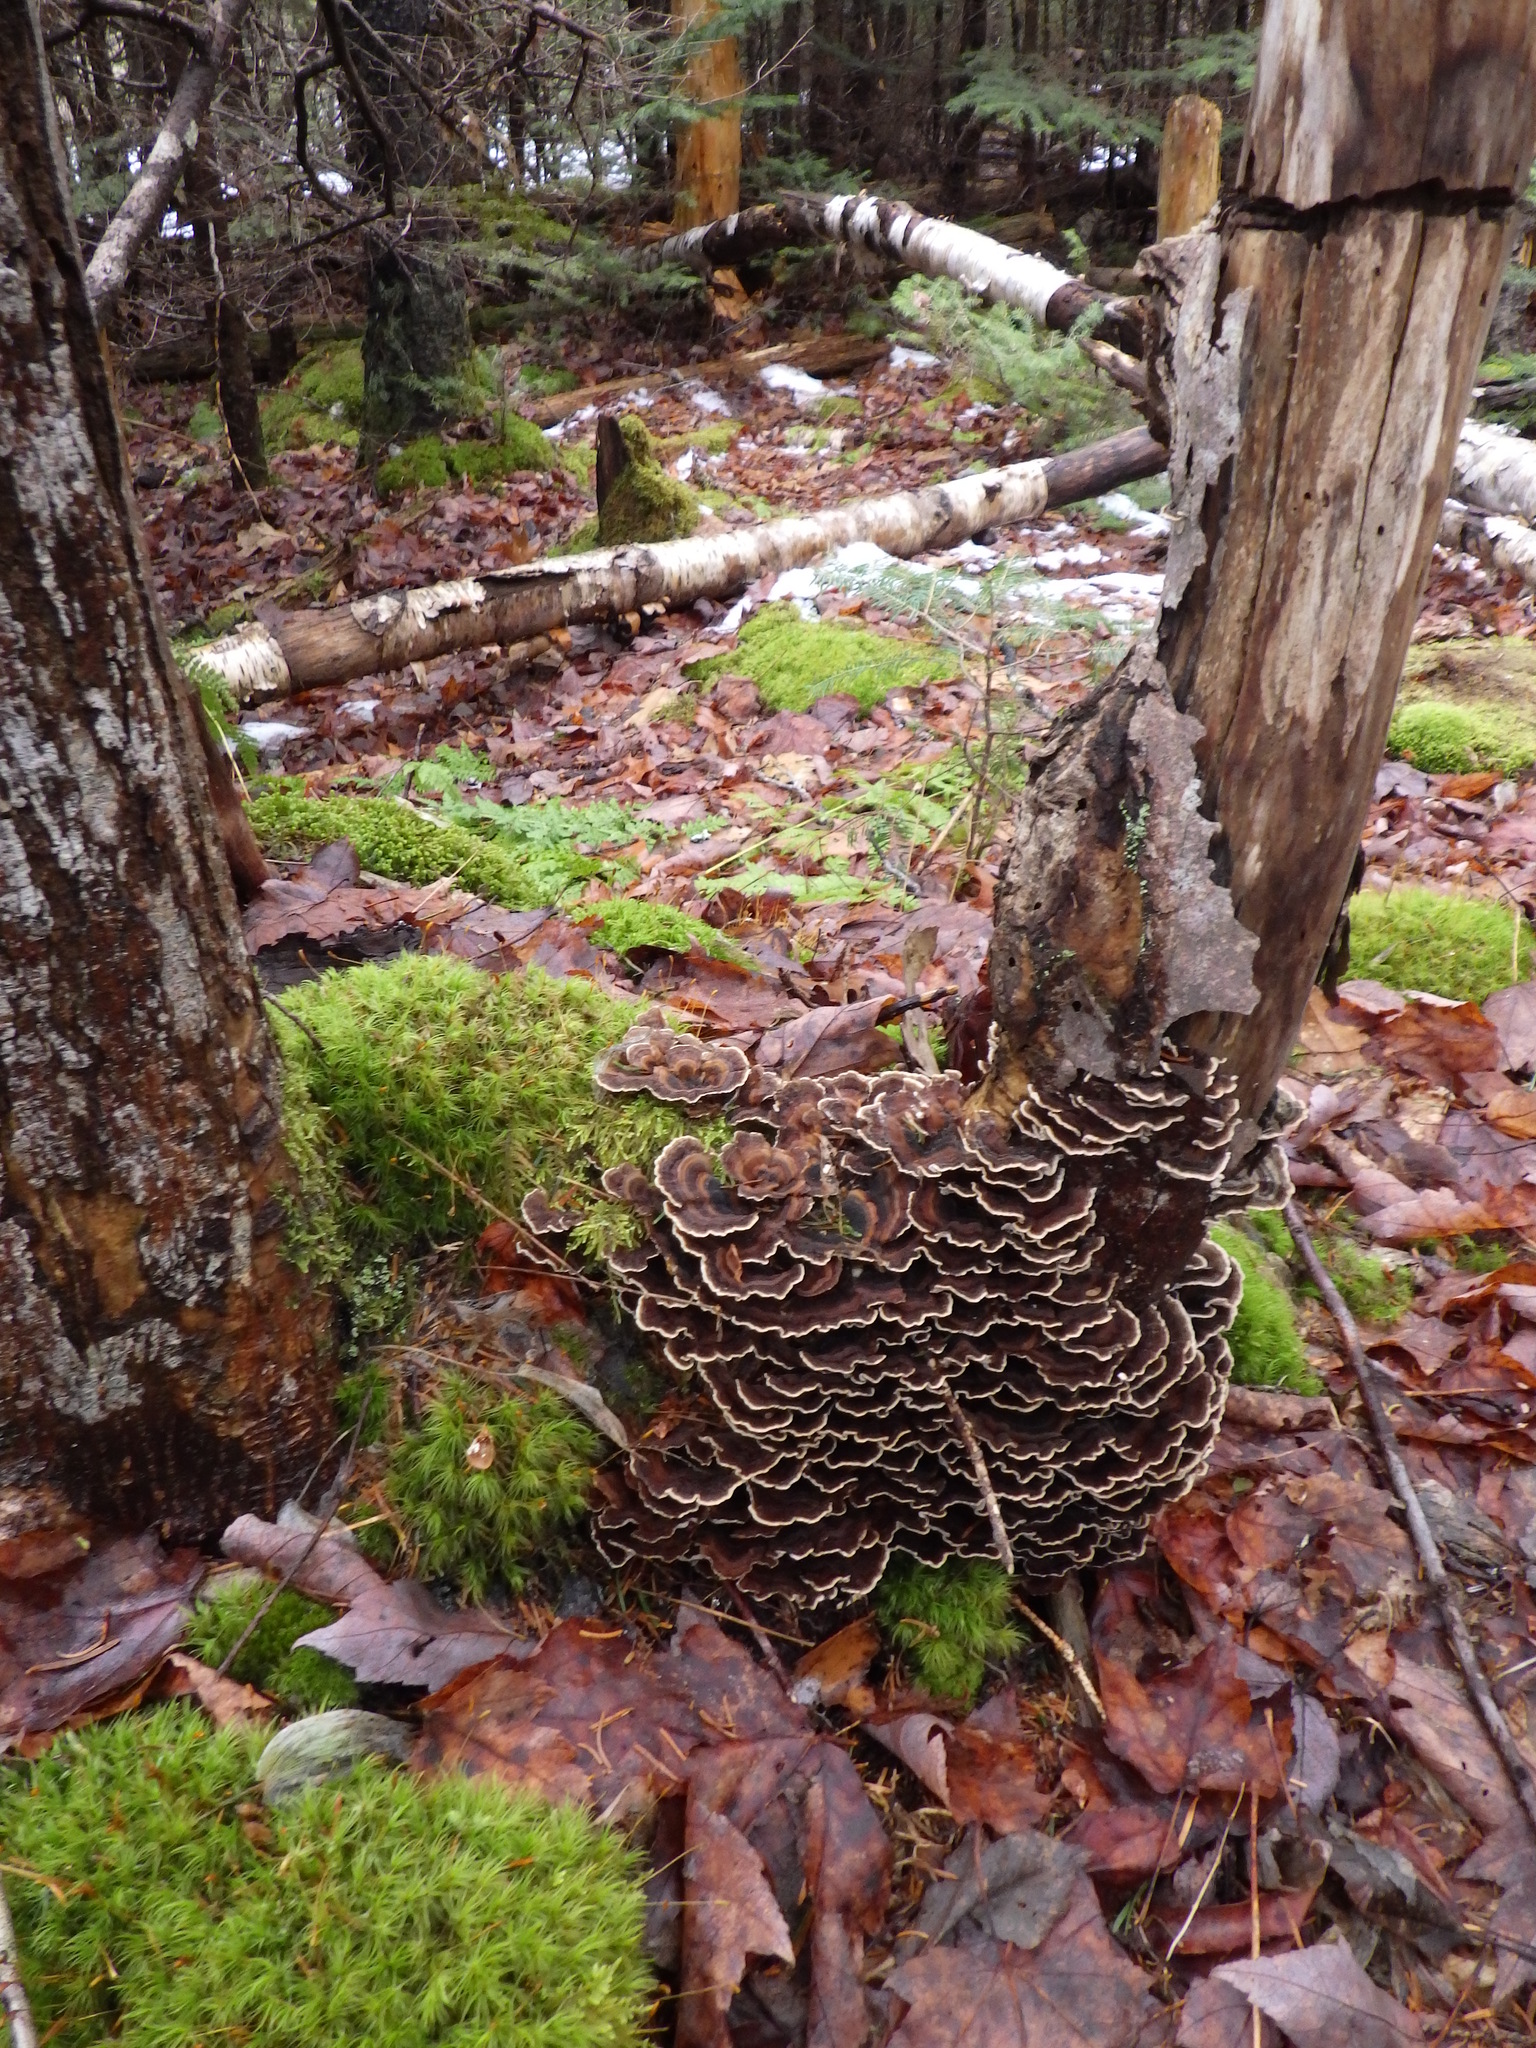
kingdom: Fungi
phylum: Basidiomycota
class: Agaricomycetes
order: Polyporales
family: Polyporaceae
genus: Trametes
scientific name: Trametes versicolor
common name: Turkeytail
